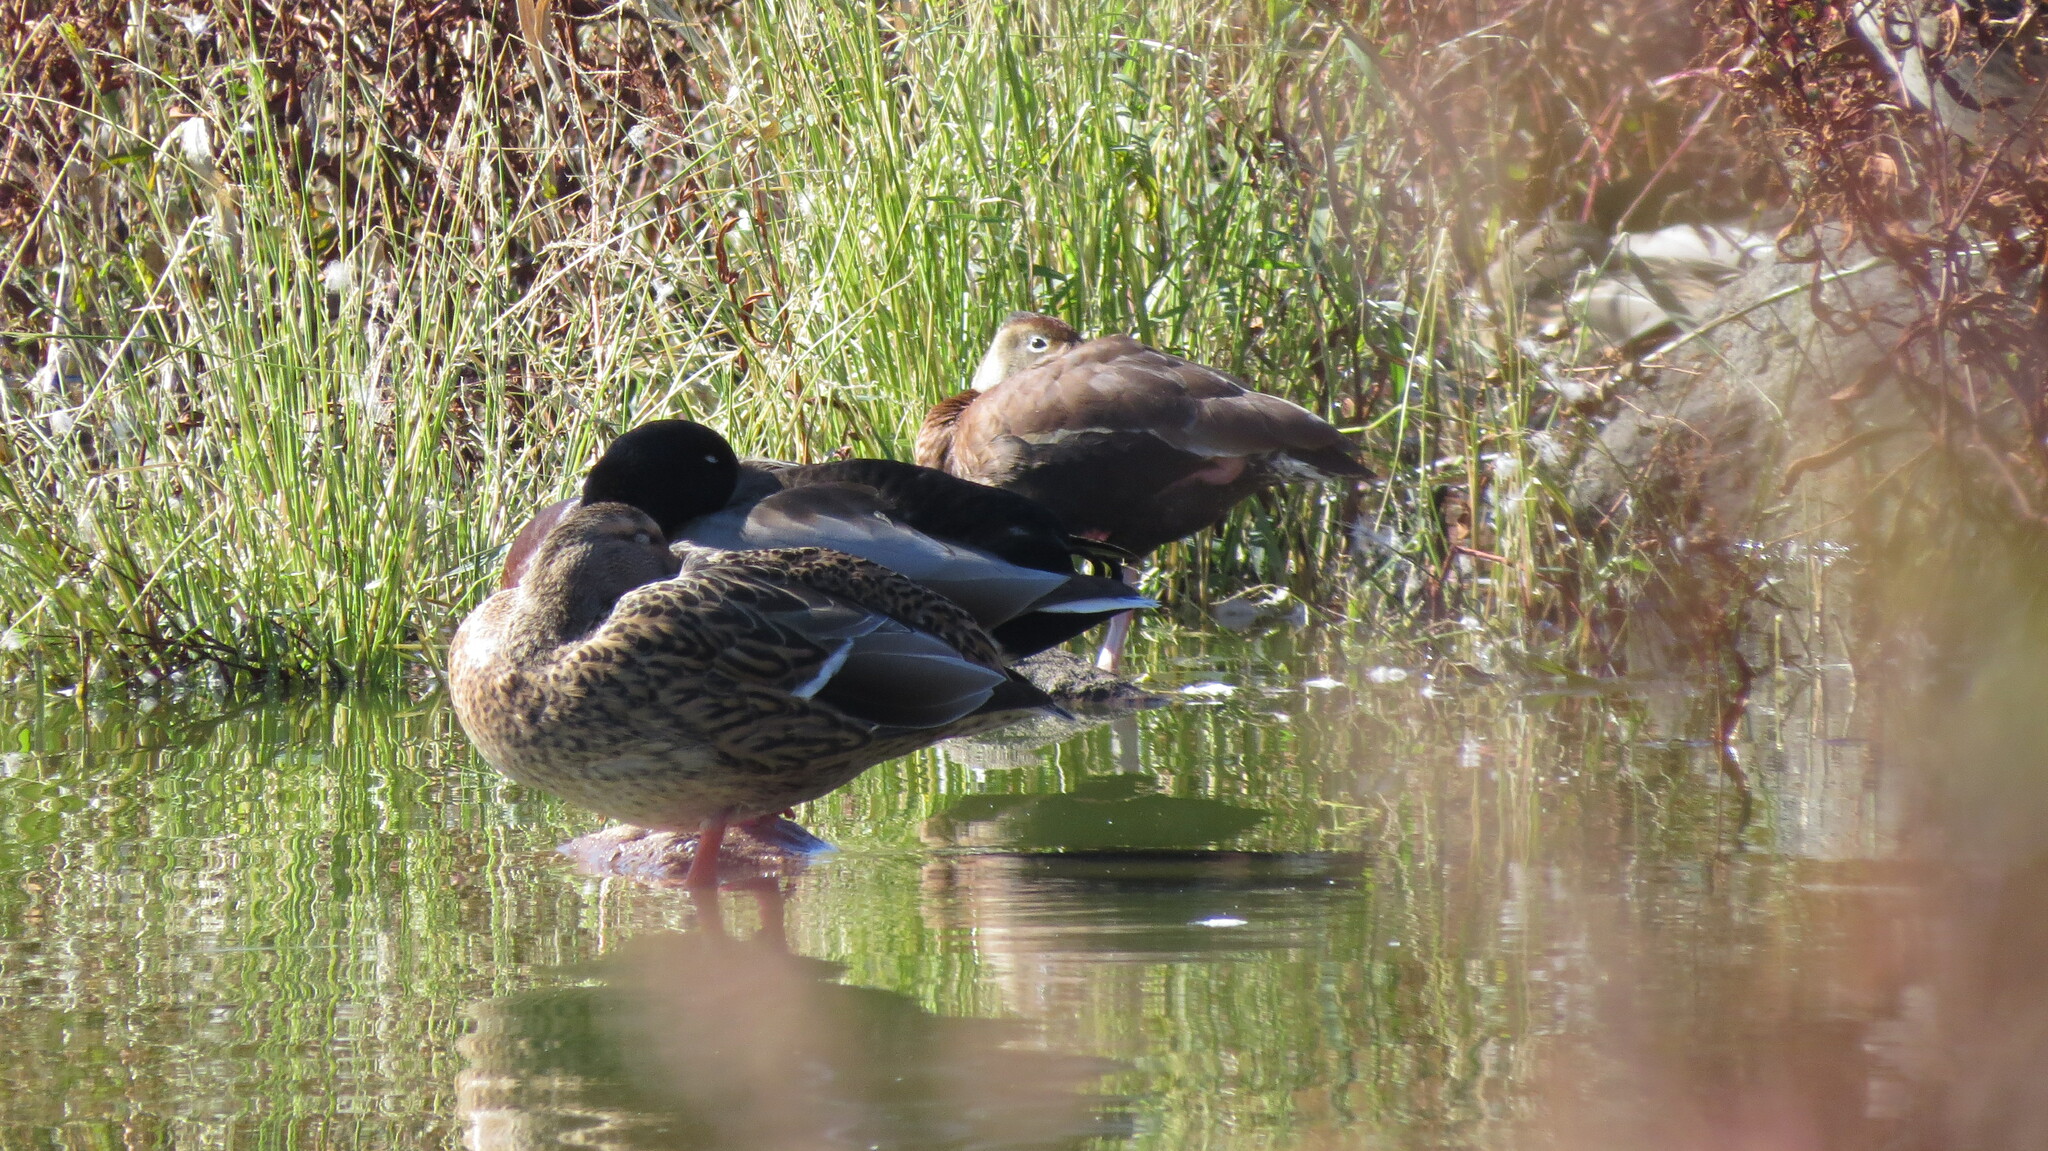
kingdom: Animalia
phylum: Chordata
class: Aves
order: Anseriformes
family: Anatidae
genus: Anas
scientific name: Anas platyrhynchos
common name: Mallard
